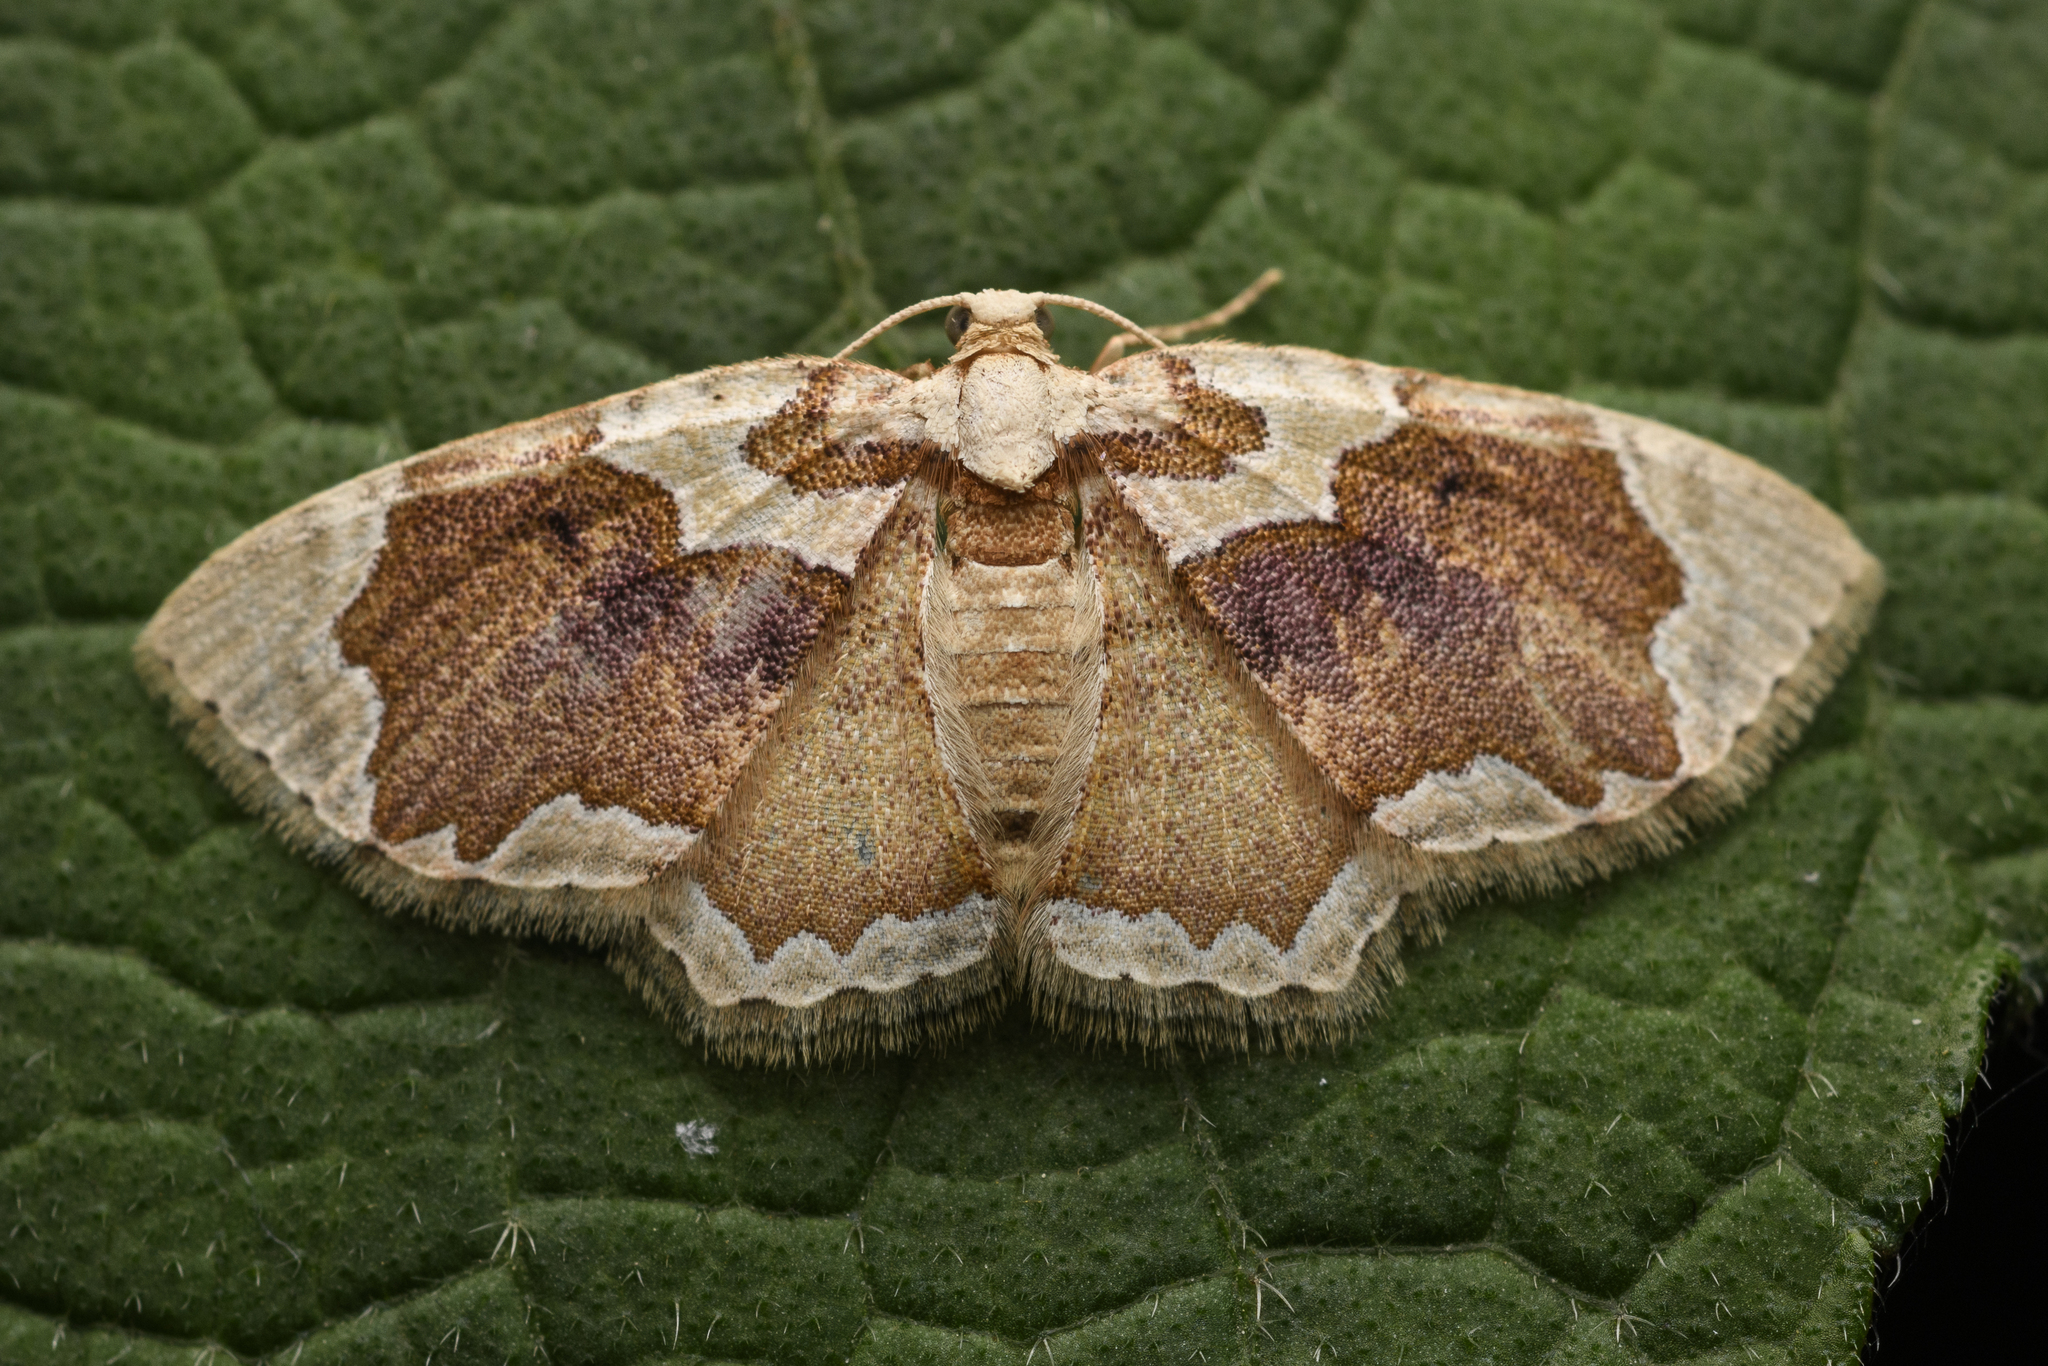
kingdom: Animalia
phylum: Arthropoda
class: Insecta
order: Lepidoptera
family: Geometridae
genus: Palpoctenidia
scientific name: Palpoctenidia phoenicosoma
